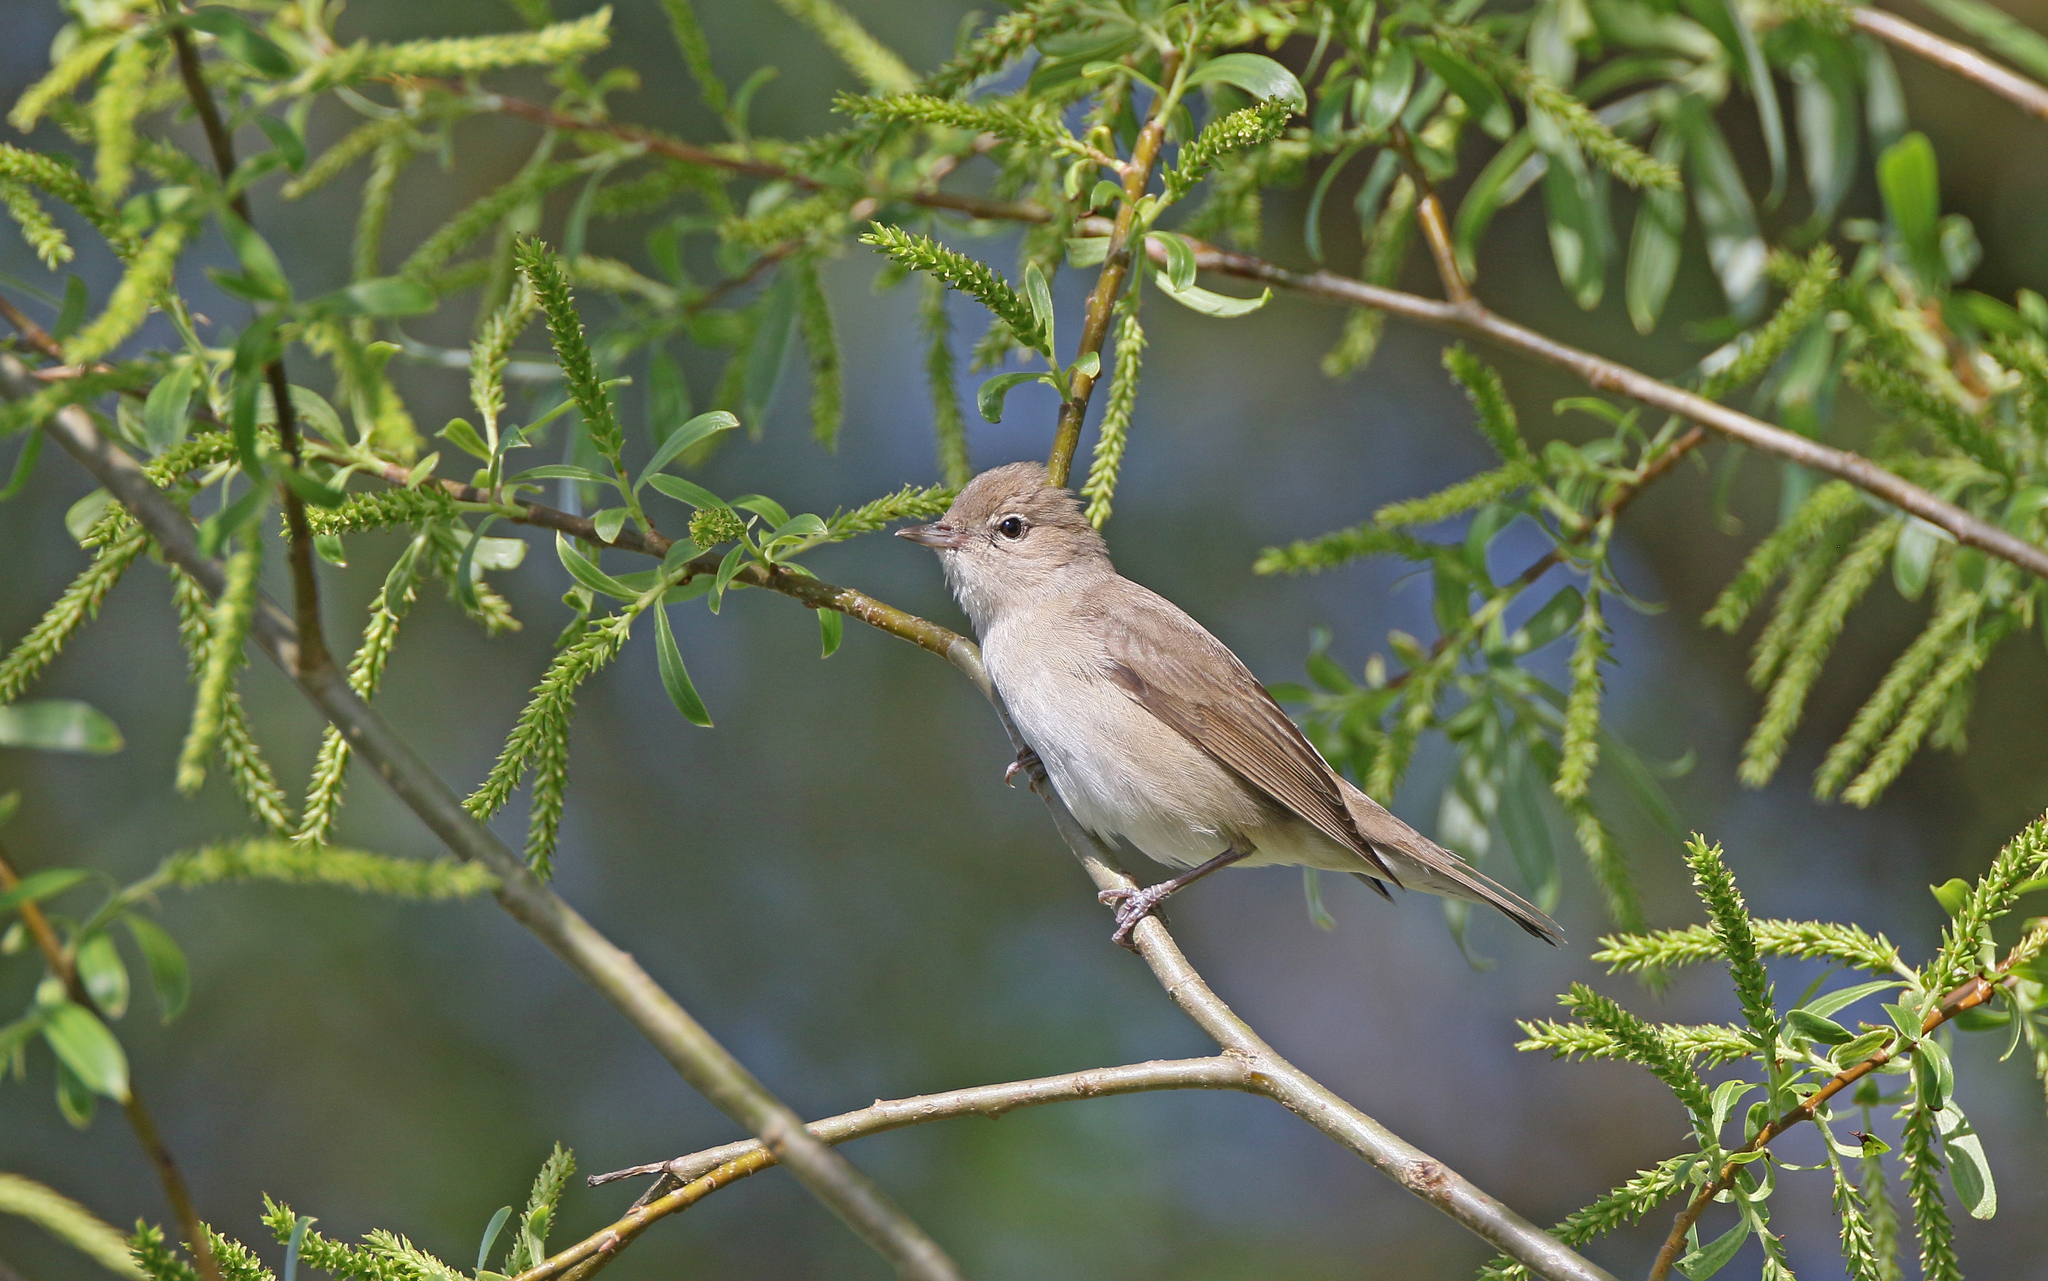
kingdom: Animalia
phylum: Chordata
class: Aves
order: Passeriformes
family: Sylviidae
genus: Sylvia
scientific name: Sylvia borin
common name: Garden warbler
